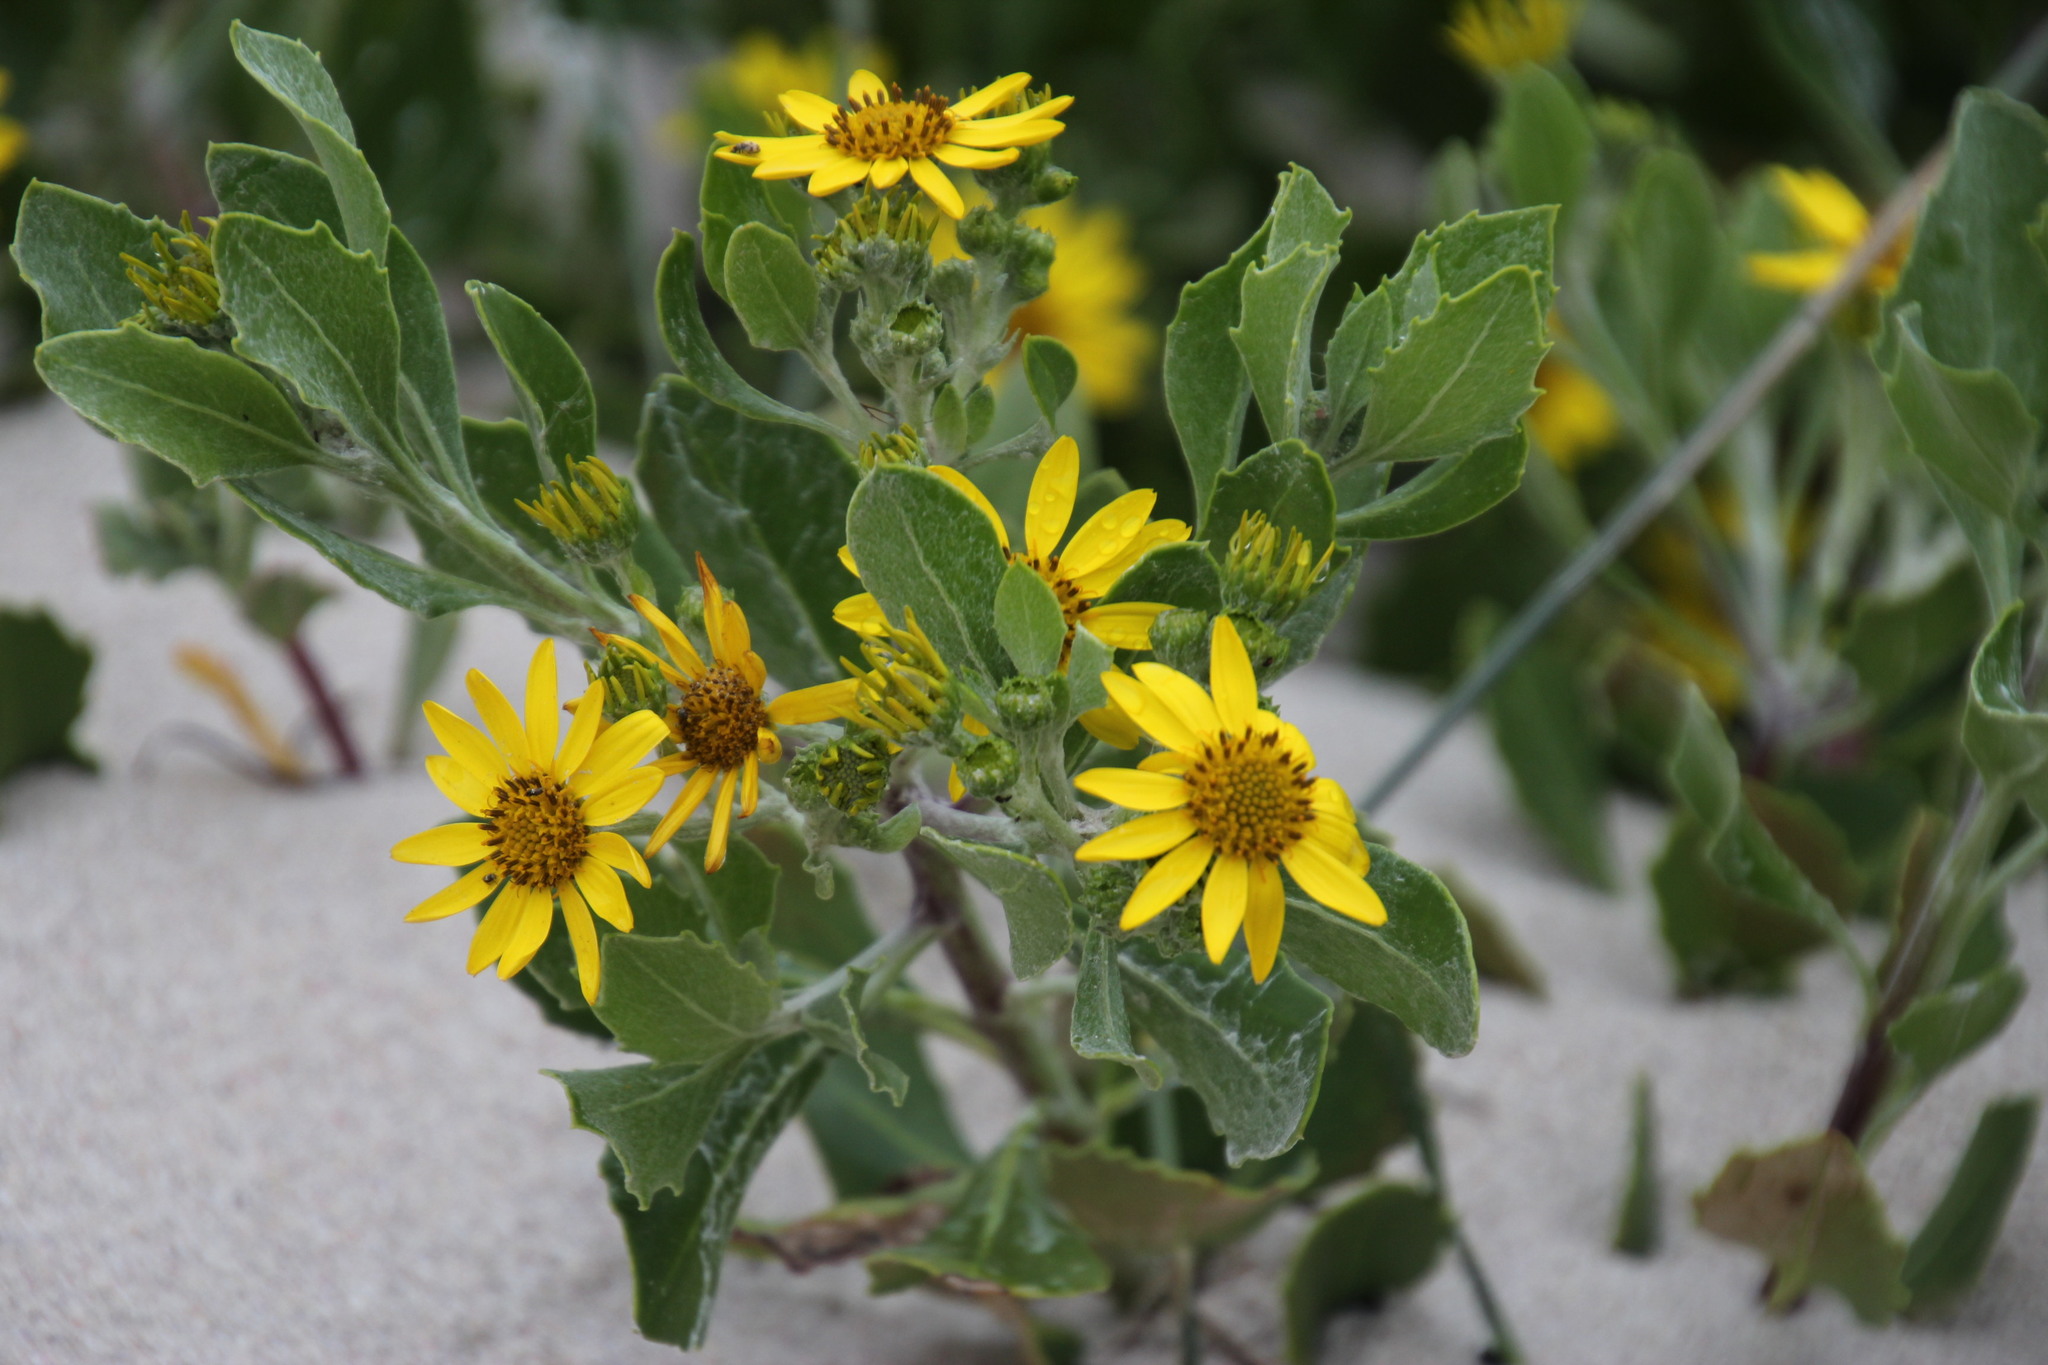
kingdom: Plantae
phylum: Tracheophyta
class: Magnoliopsida
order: Asterales
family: Asteraceae
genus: Osteospermum
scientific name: Osteospermum moniliferum
